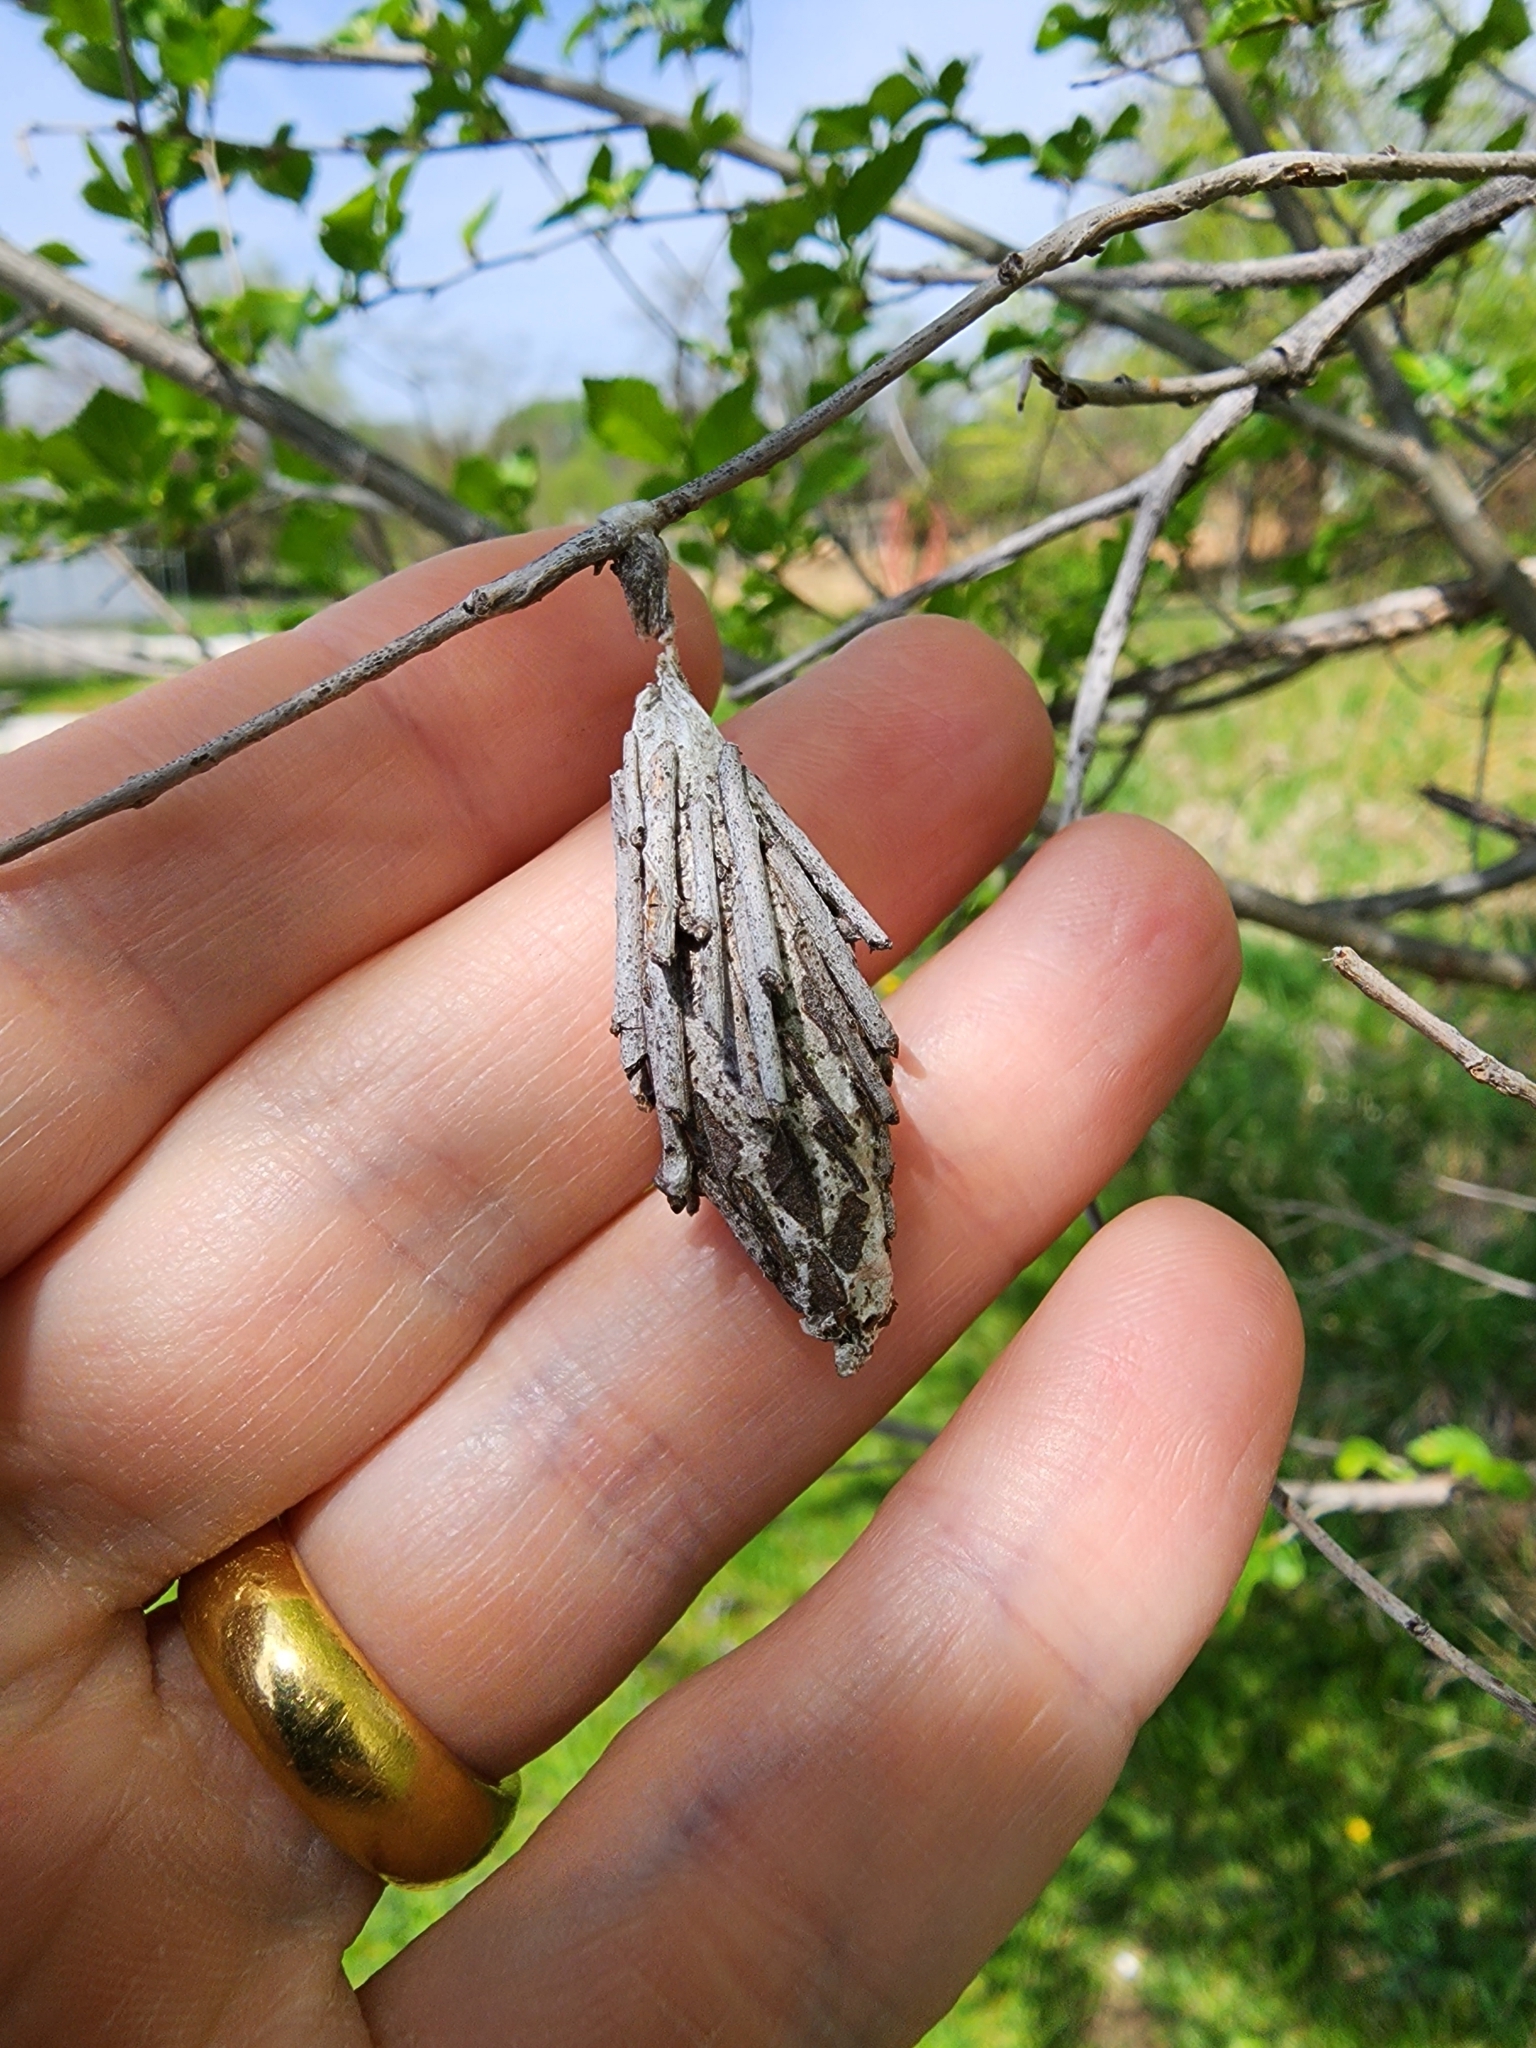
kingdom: Animalia
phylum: Arthropoda
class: Insecta
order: Lepidoptera
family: Psychidae
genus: Thyridopteryx
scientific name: Thyridopteryx ephemeraeformis
